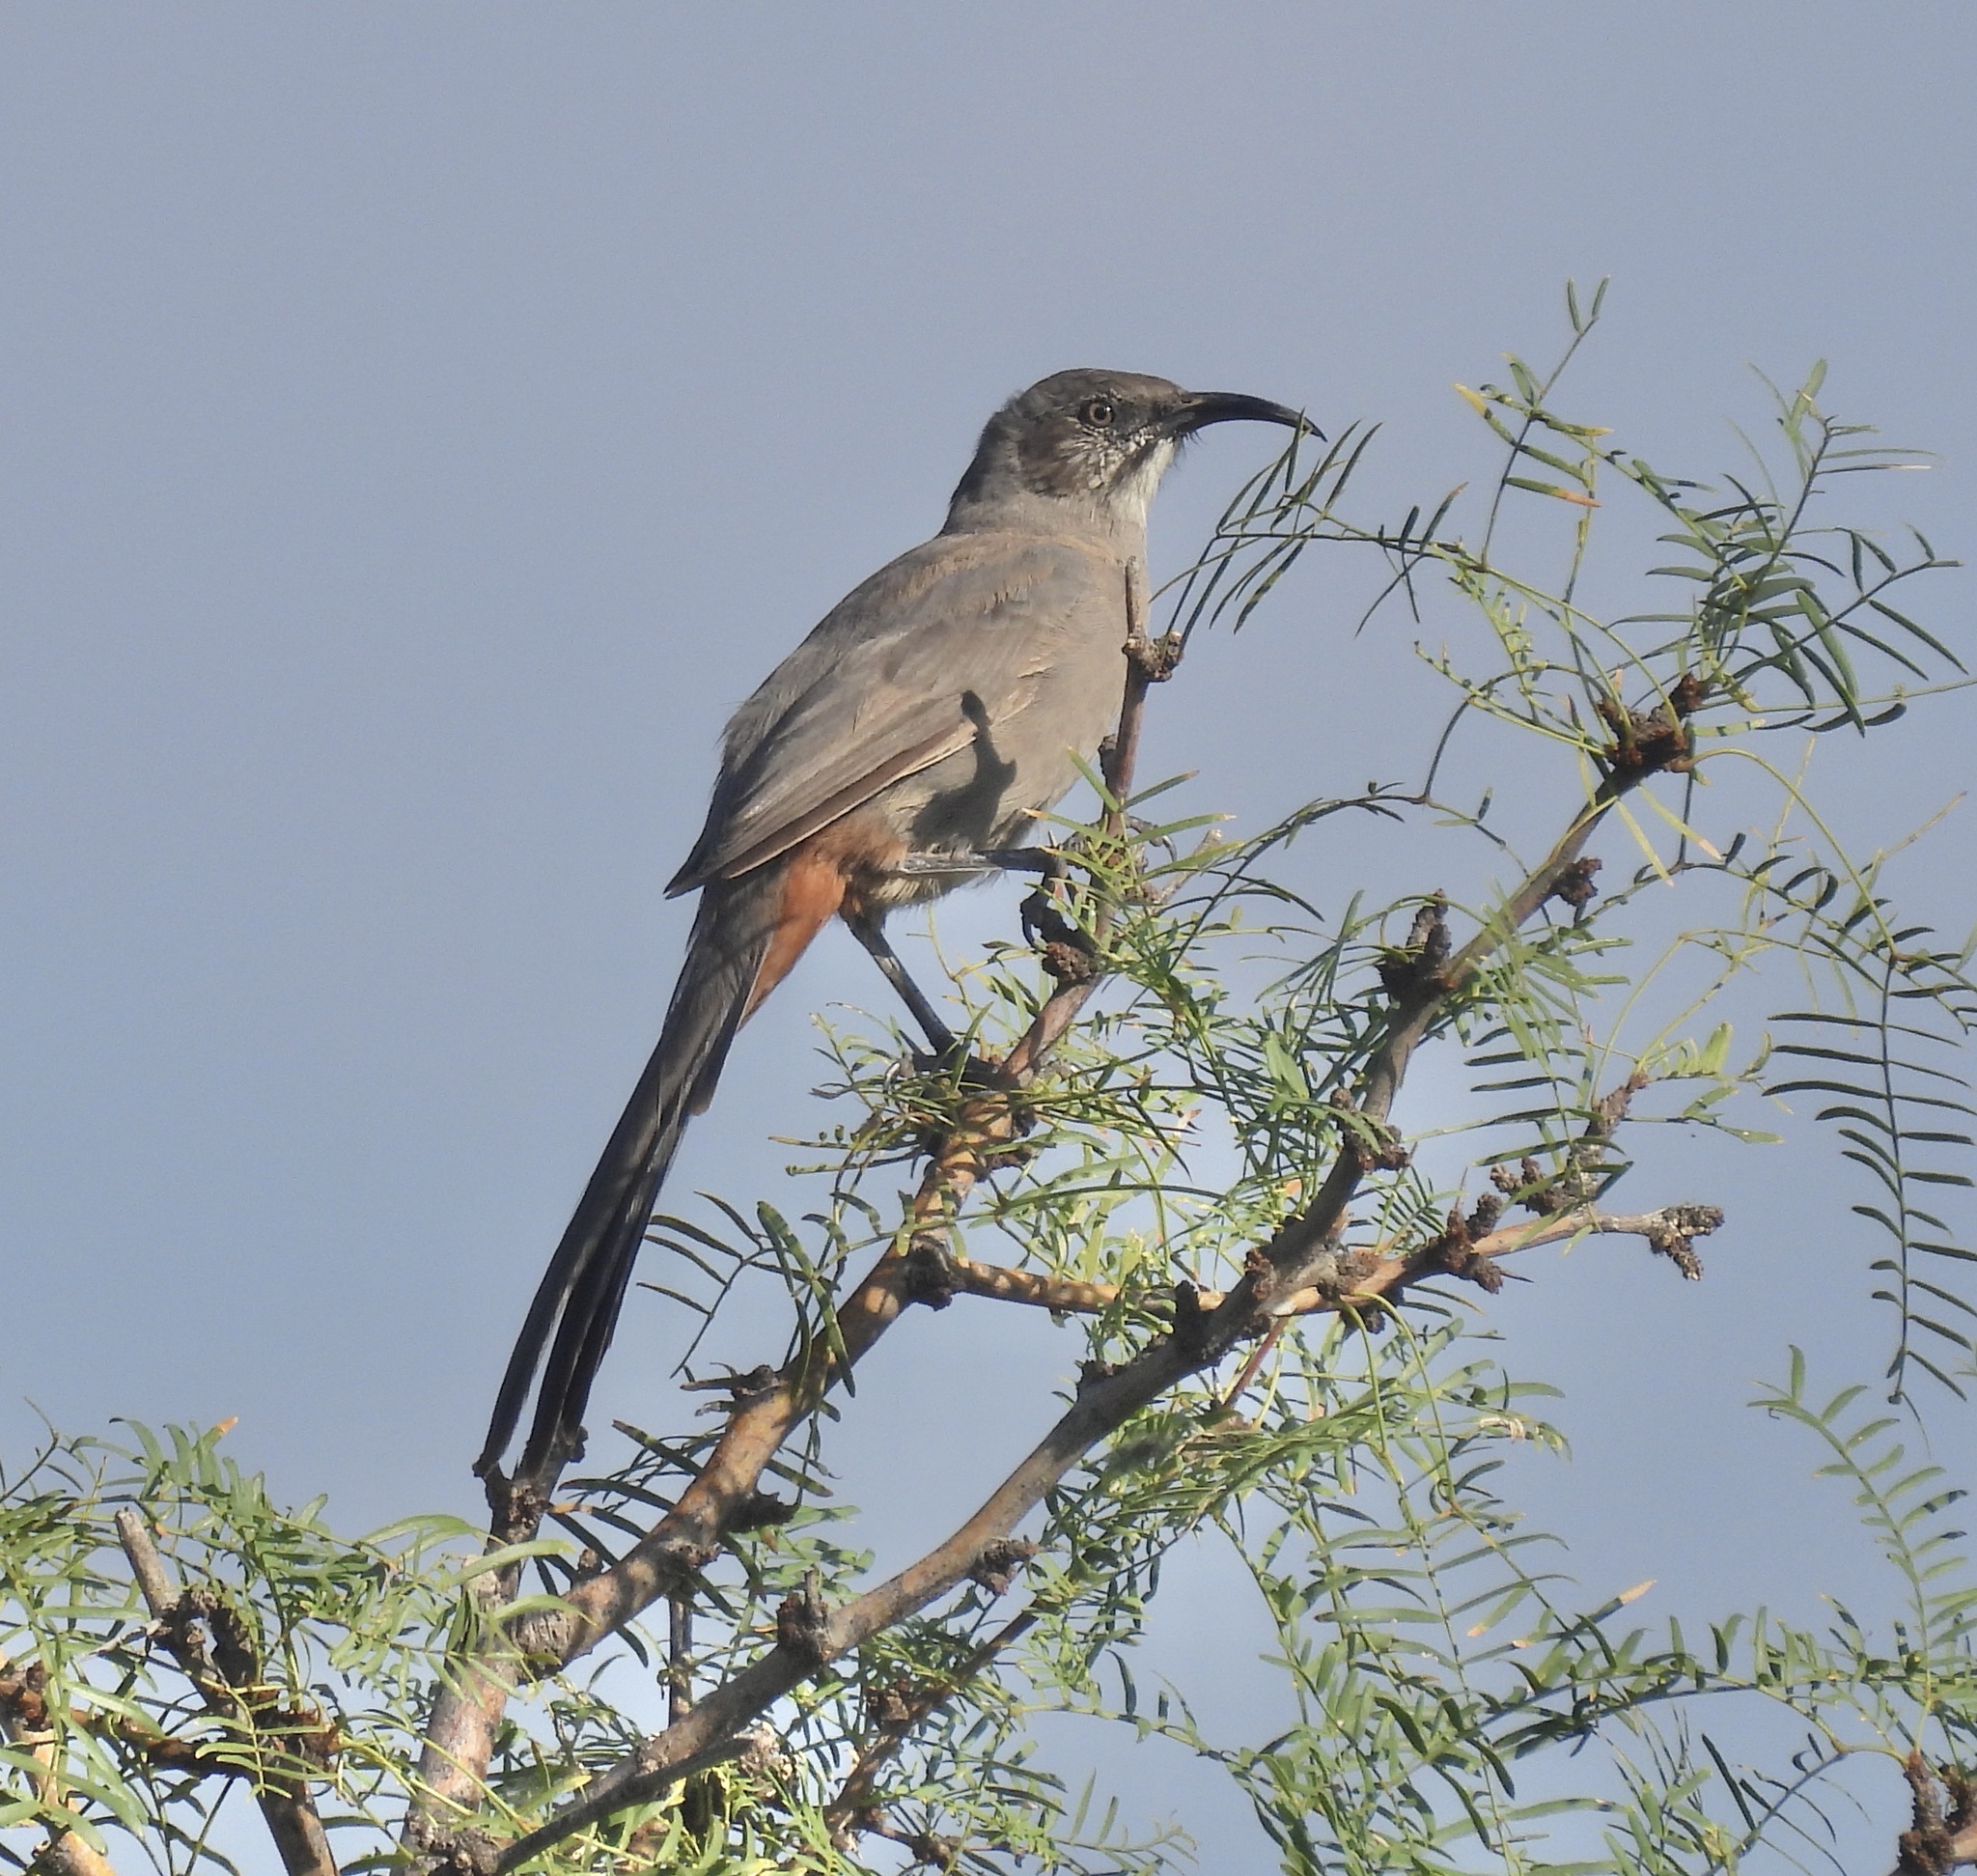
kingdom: Animalia
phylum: Chordata
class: Aves
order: Passeriformes
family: Mimidae
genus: Toxostoma
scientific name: Toxostoma crissale
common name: Crissal thrasher
